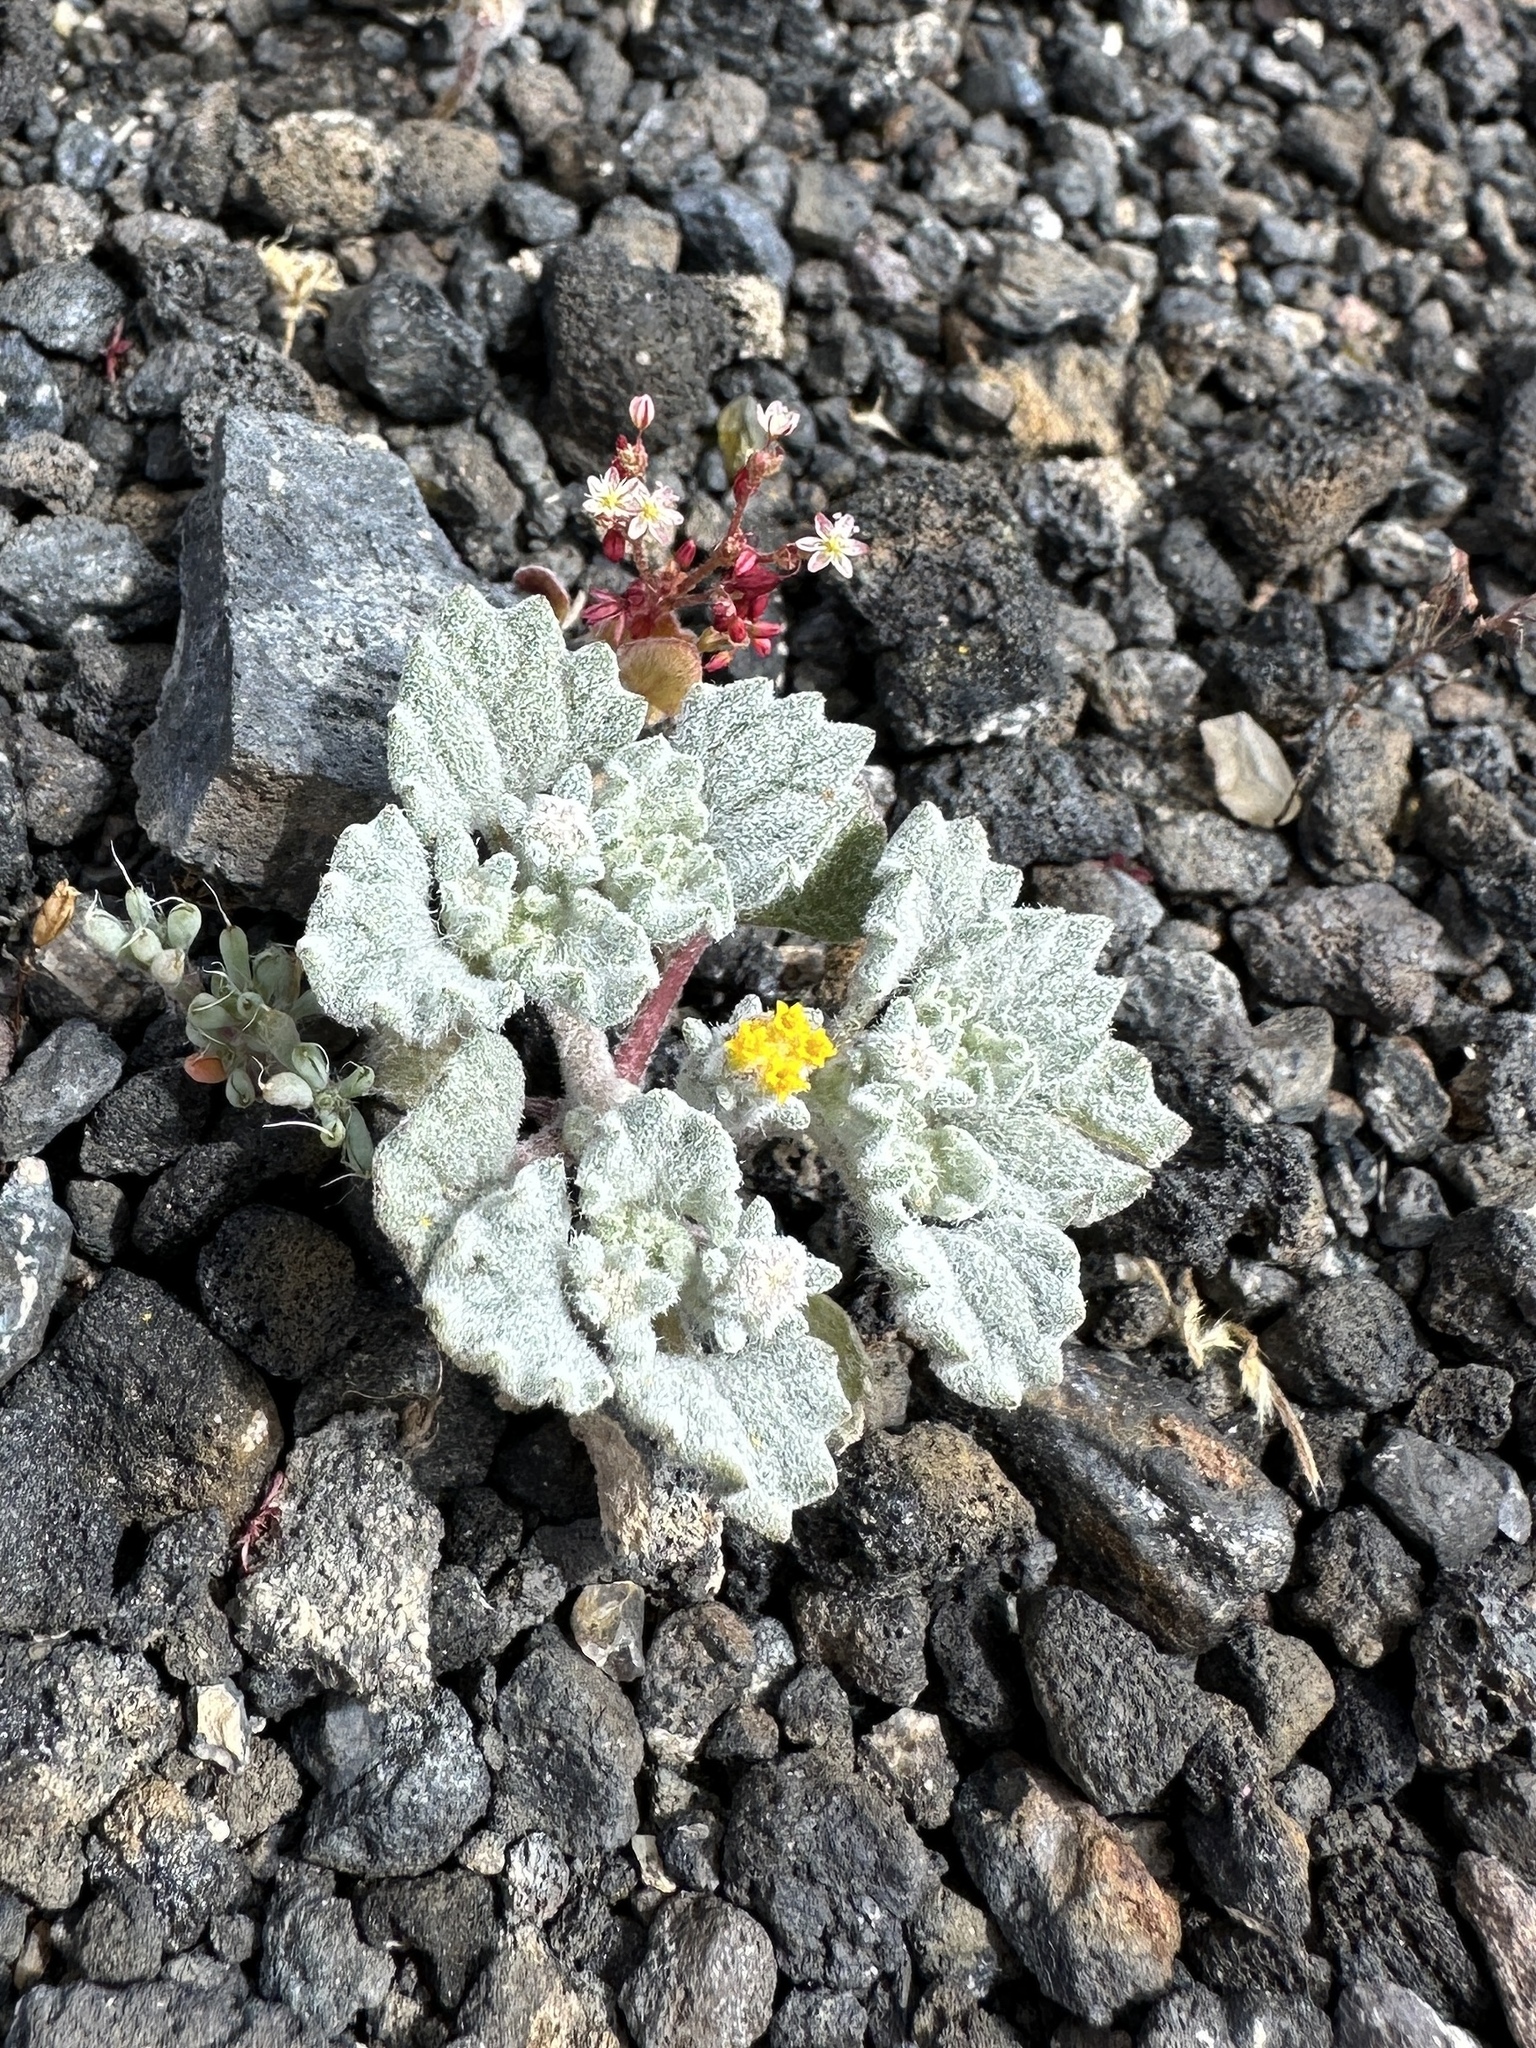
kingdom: Plantae
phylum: Tracheophyta
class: Magnoliopsida
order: Asterales
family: Asteraceae
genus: Psathyrotes
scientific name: Psathyrotes annua
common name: Mealy rosettes
